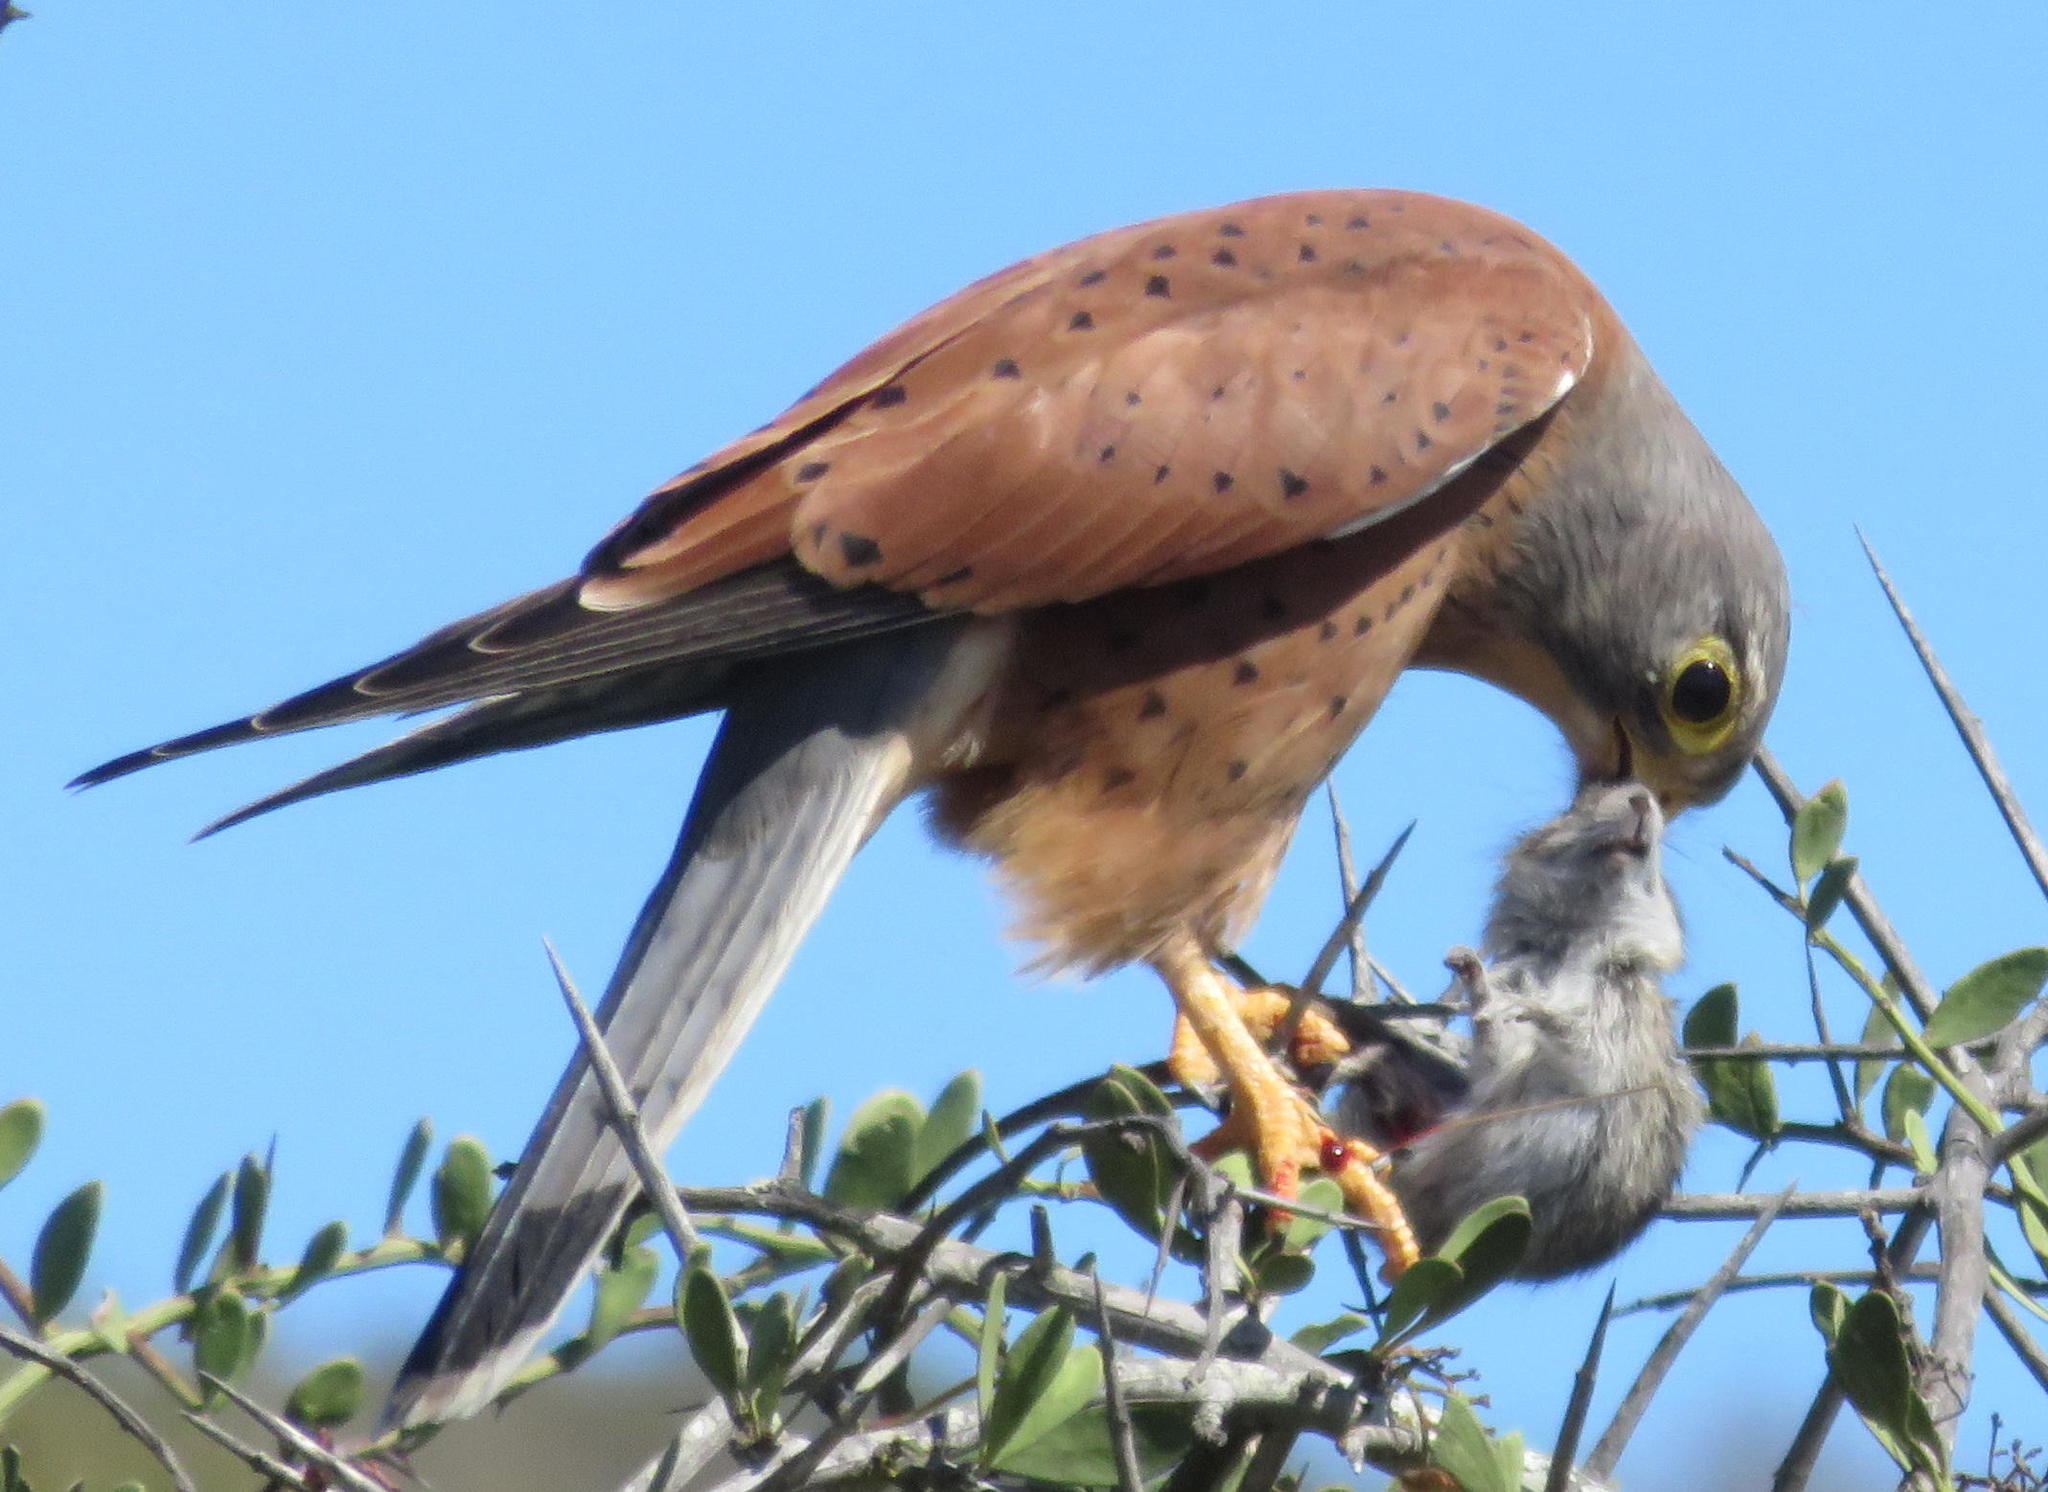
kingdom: Animalia
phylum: Chordata
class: Aves
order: Falconiformes
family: Falconidae
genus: Falco
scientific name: Falco rupicolus
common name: Rock kestrel
